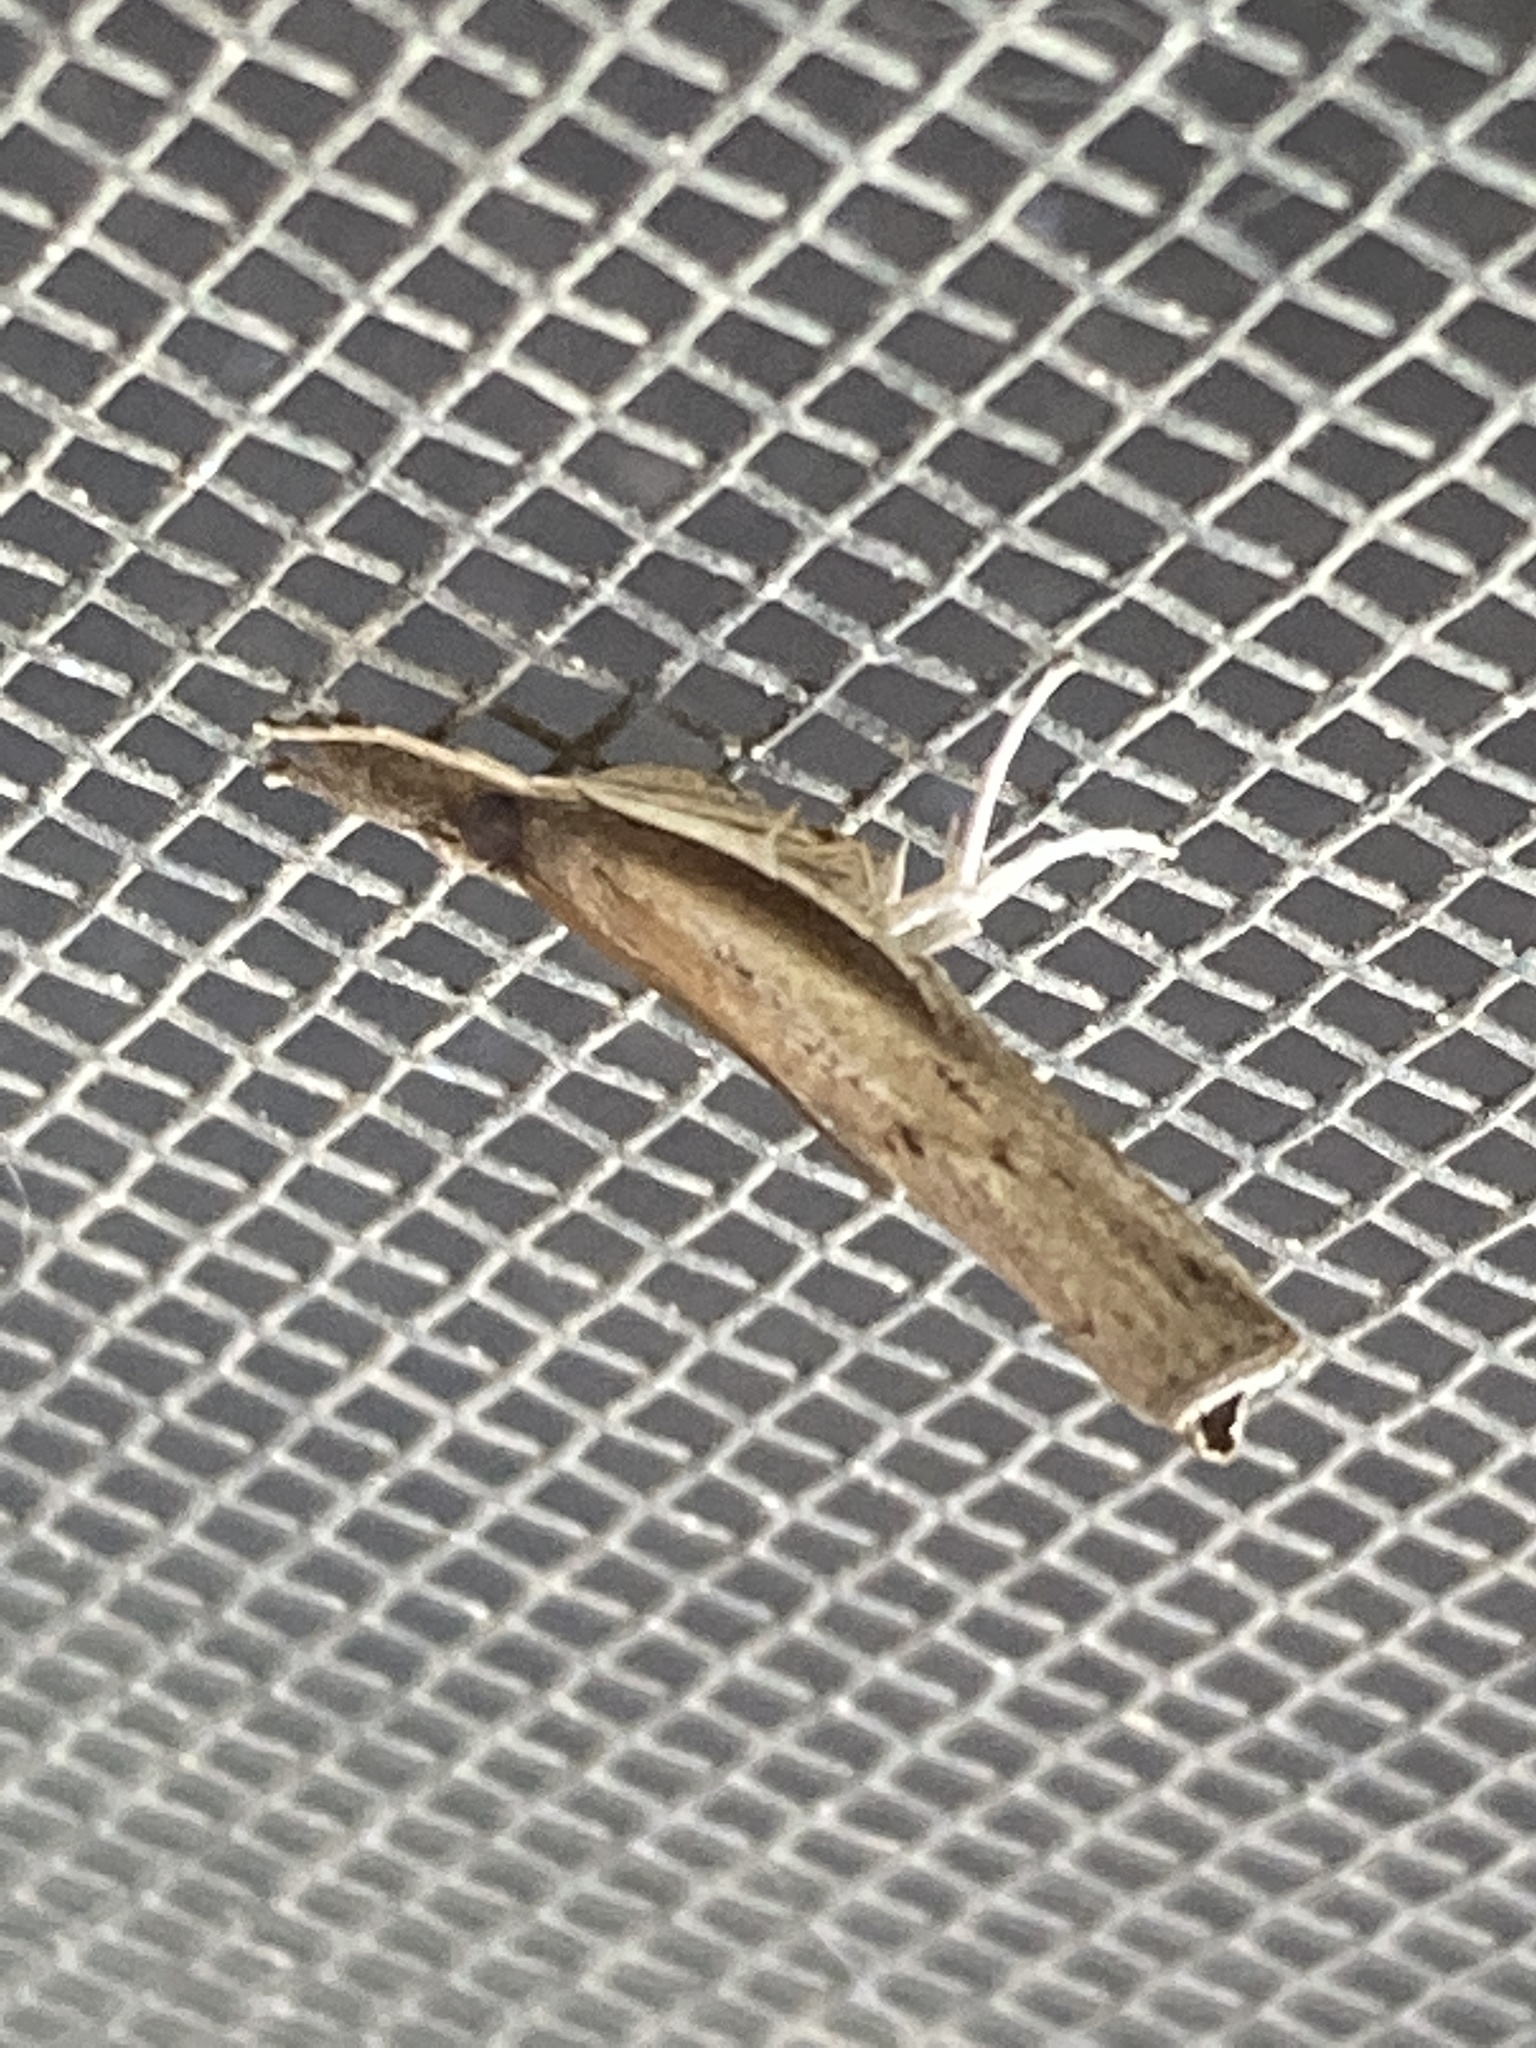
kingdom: Animalia
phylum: Arthropoda
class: Insecta
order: Lepidoptera
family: Crambidae
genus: Fissicrambus
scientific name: Fissicrambus mutabilis
